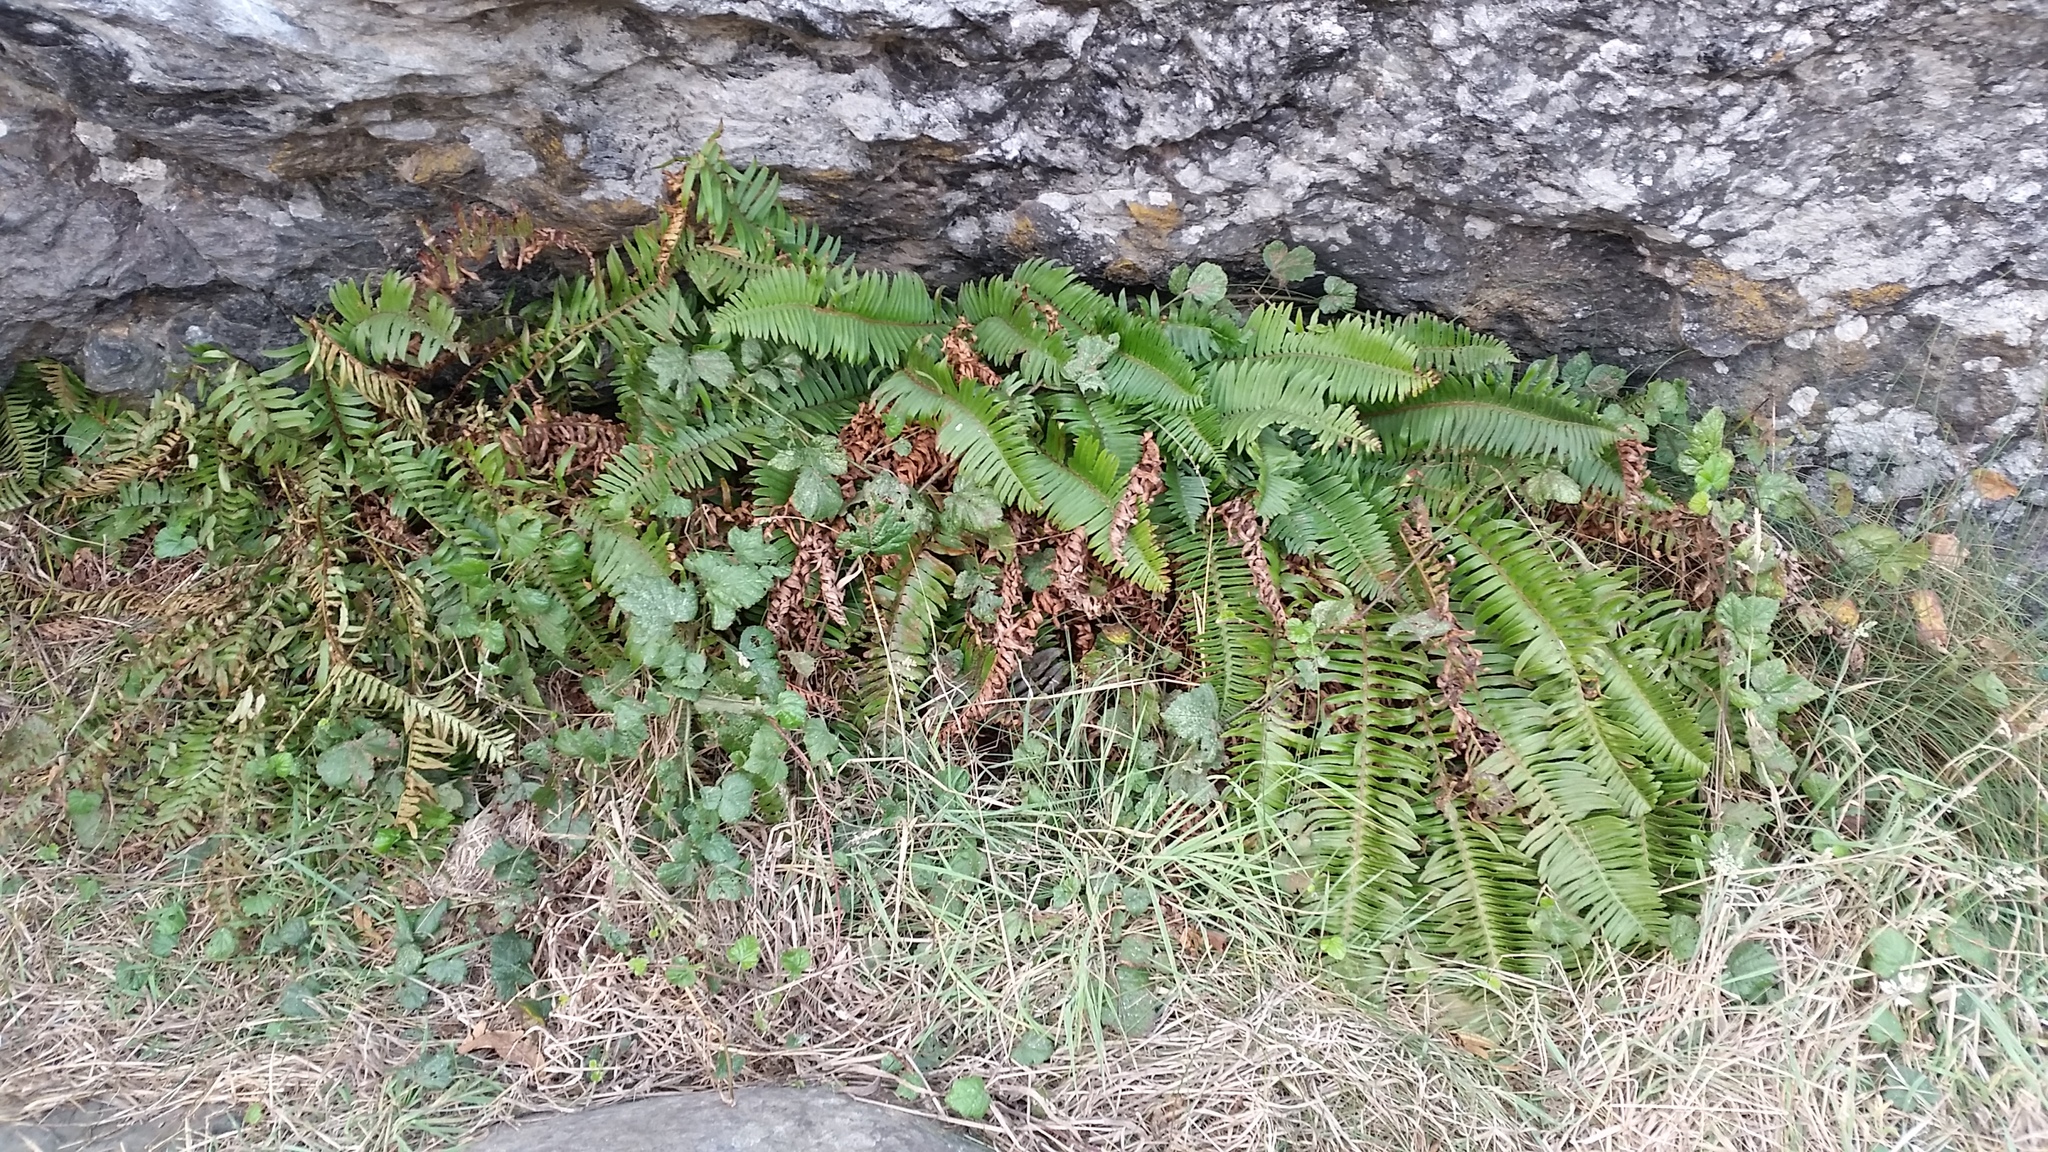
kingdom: Plantae
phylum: Tracheophyta
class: Polypodiopsida
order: Polypodiales
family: Dryopteridaceae
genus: Polystichum
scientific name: Polystichum munitum
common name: Western sword-fern
